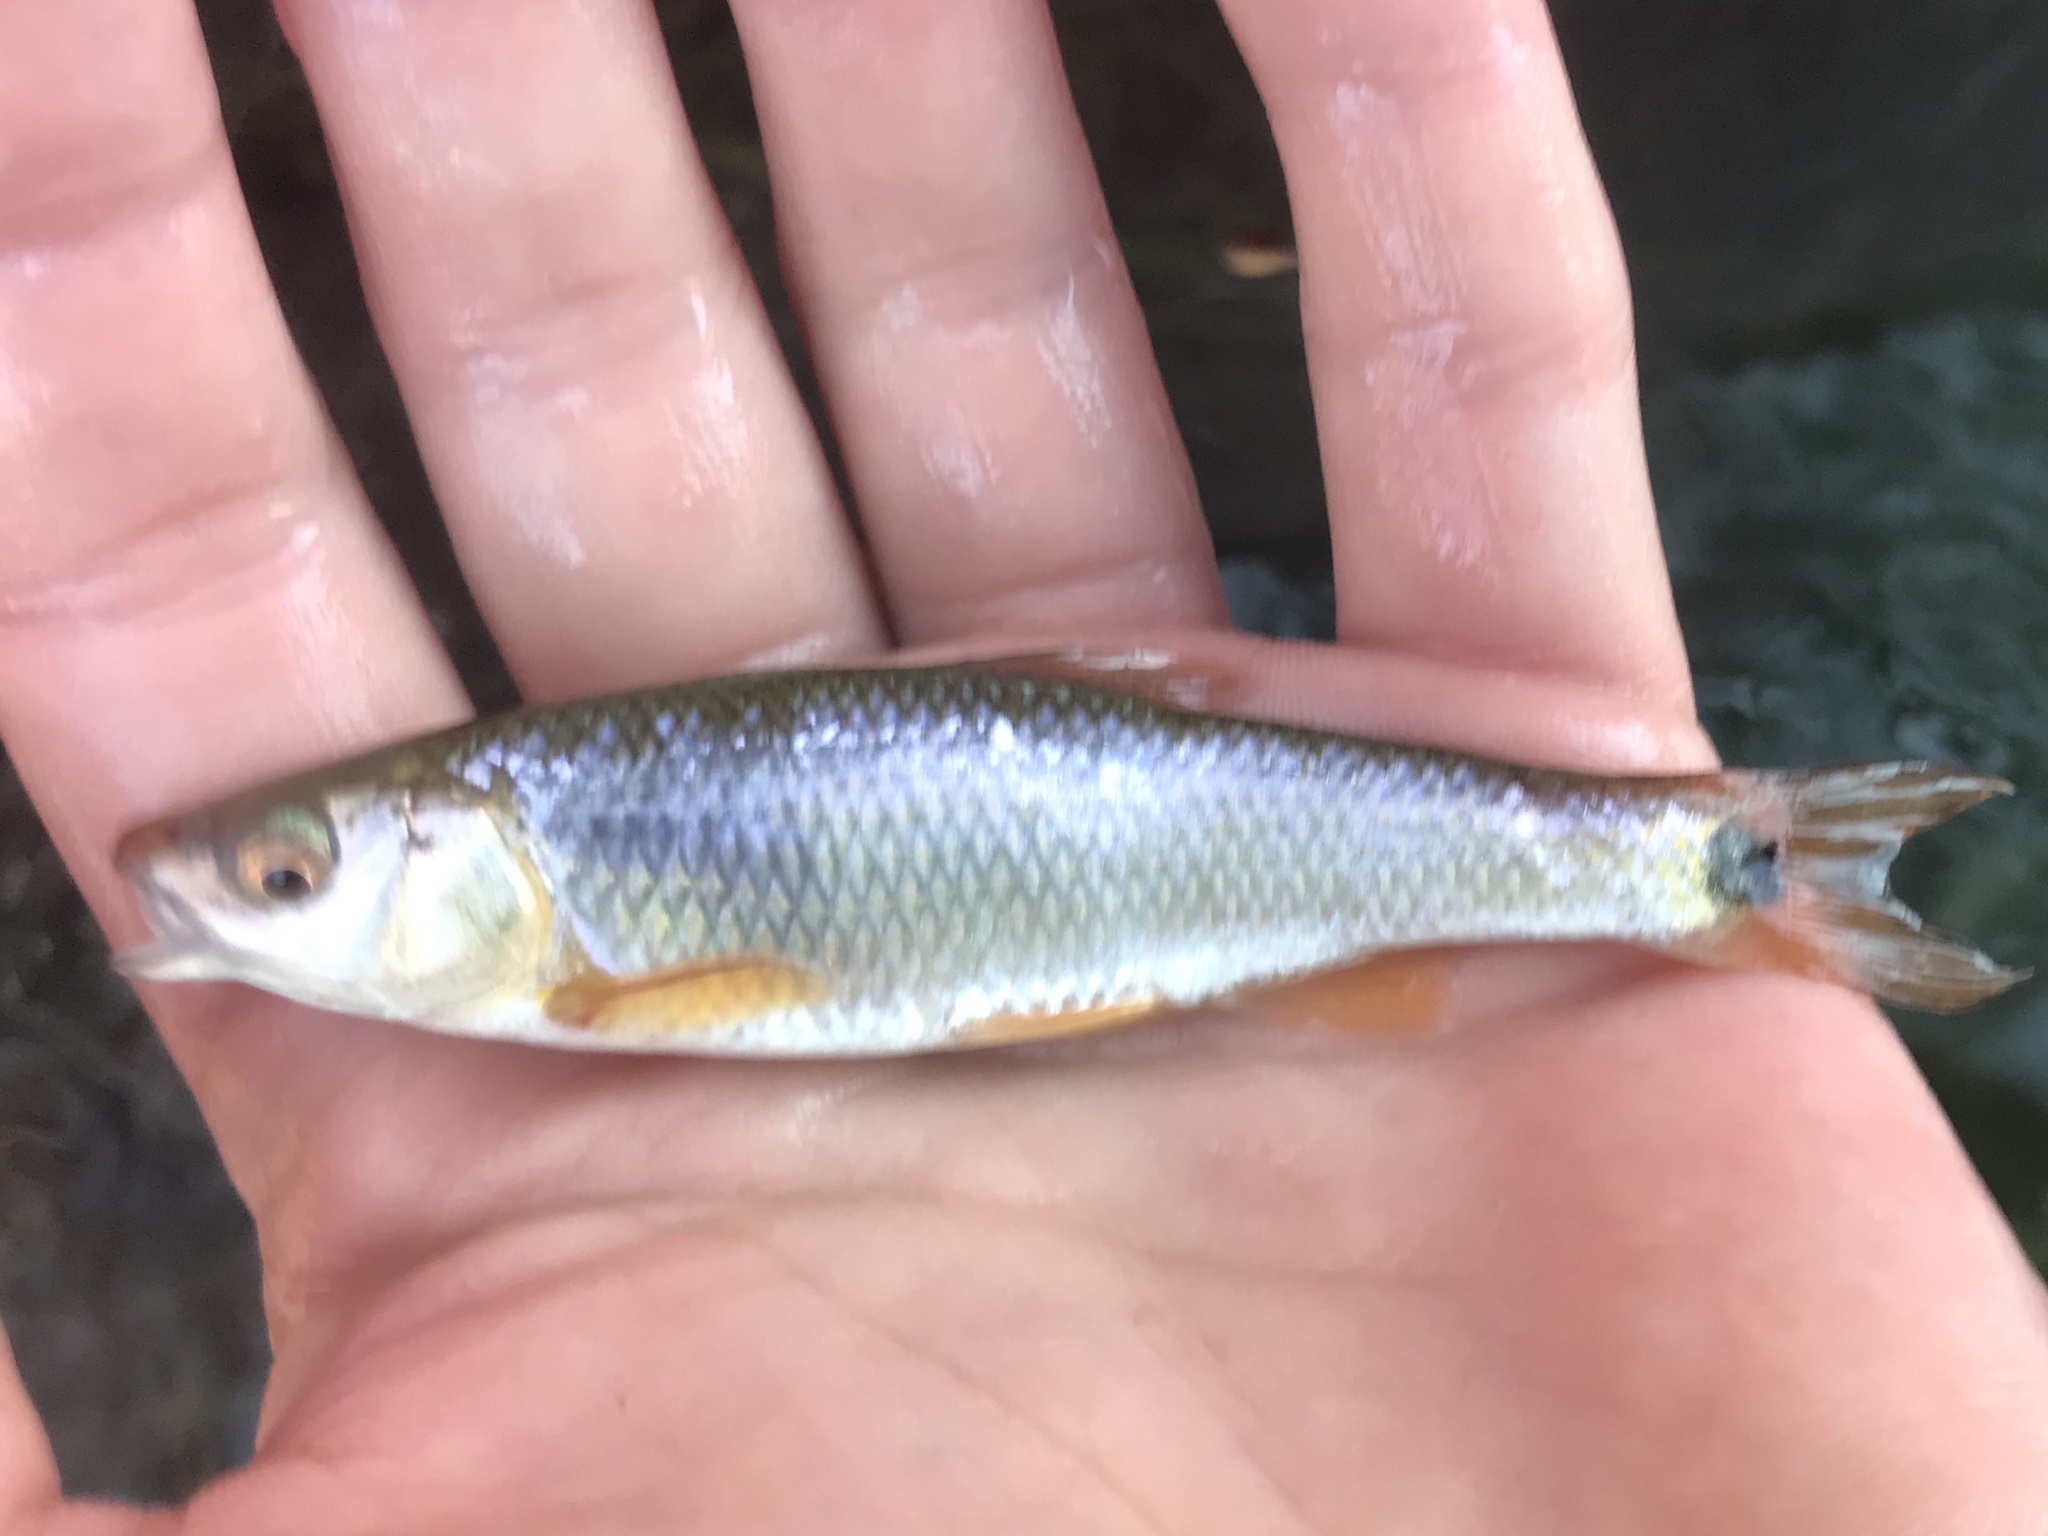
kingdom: Animalia
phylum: Chordata
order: Cypriniformes
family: Cyprinidae
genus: Cyprinella
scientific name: Cyprinella venusta
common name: Blacktail shiner
